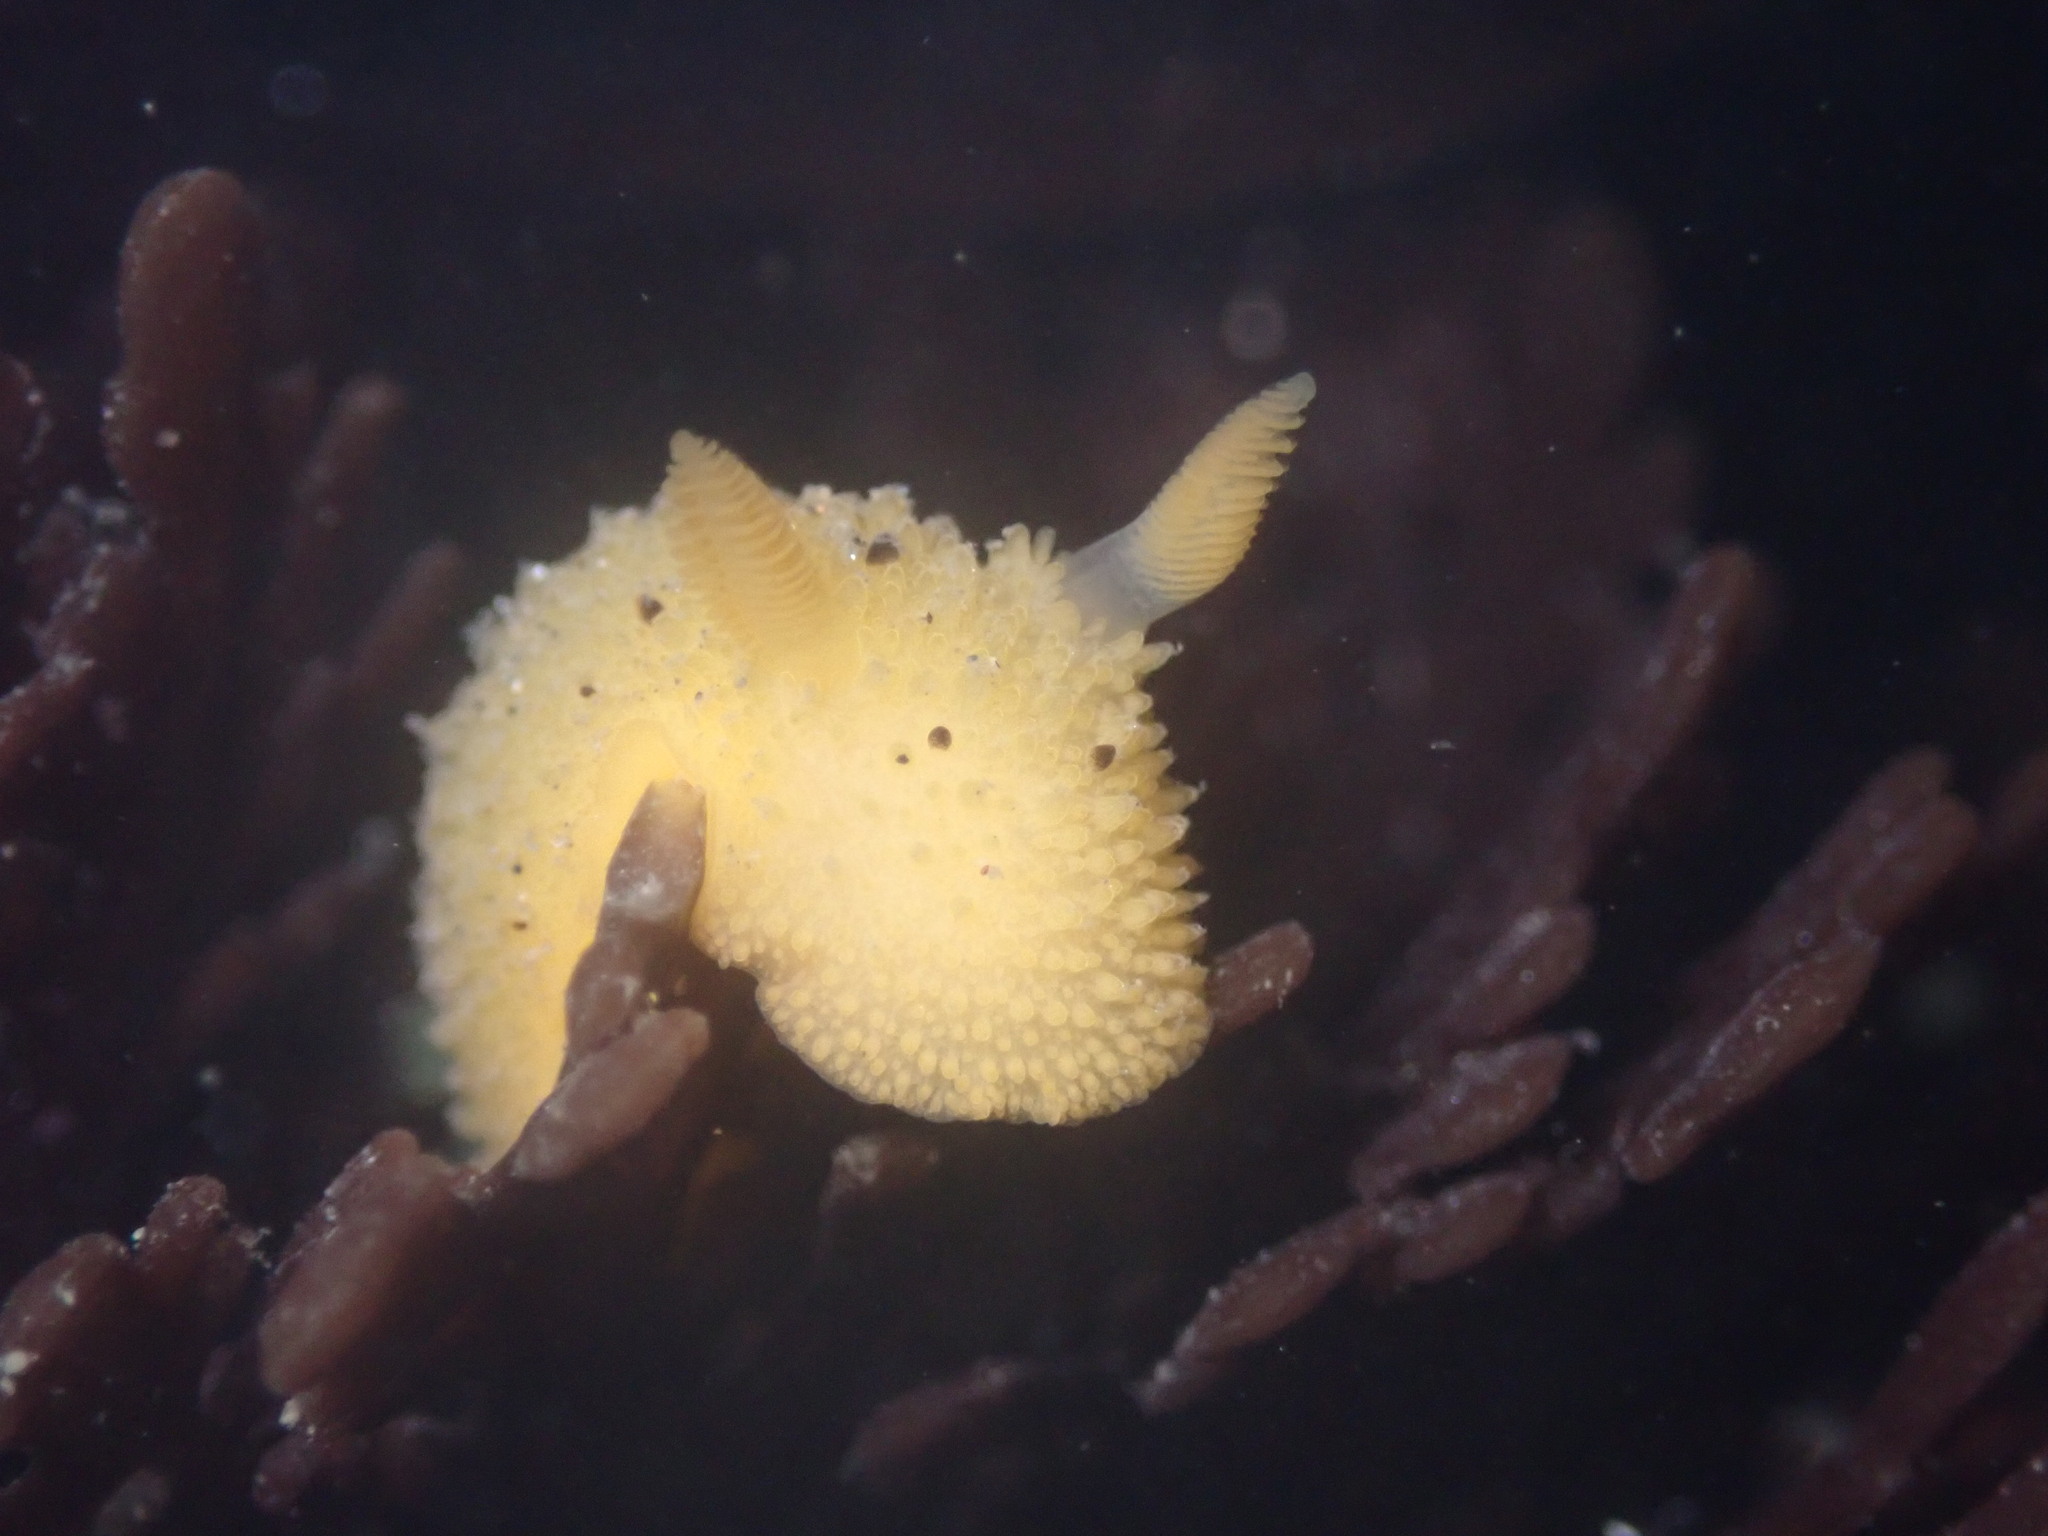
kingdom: Animalia
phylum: Mollusca
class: Gastropoda
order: Nudibranchia
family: Dorididae
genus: Doris
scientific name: Doris montereyensis
